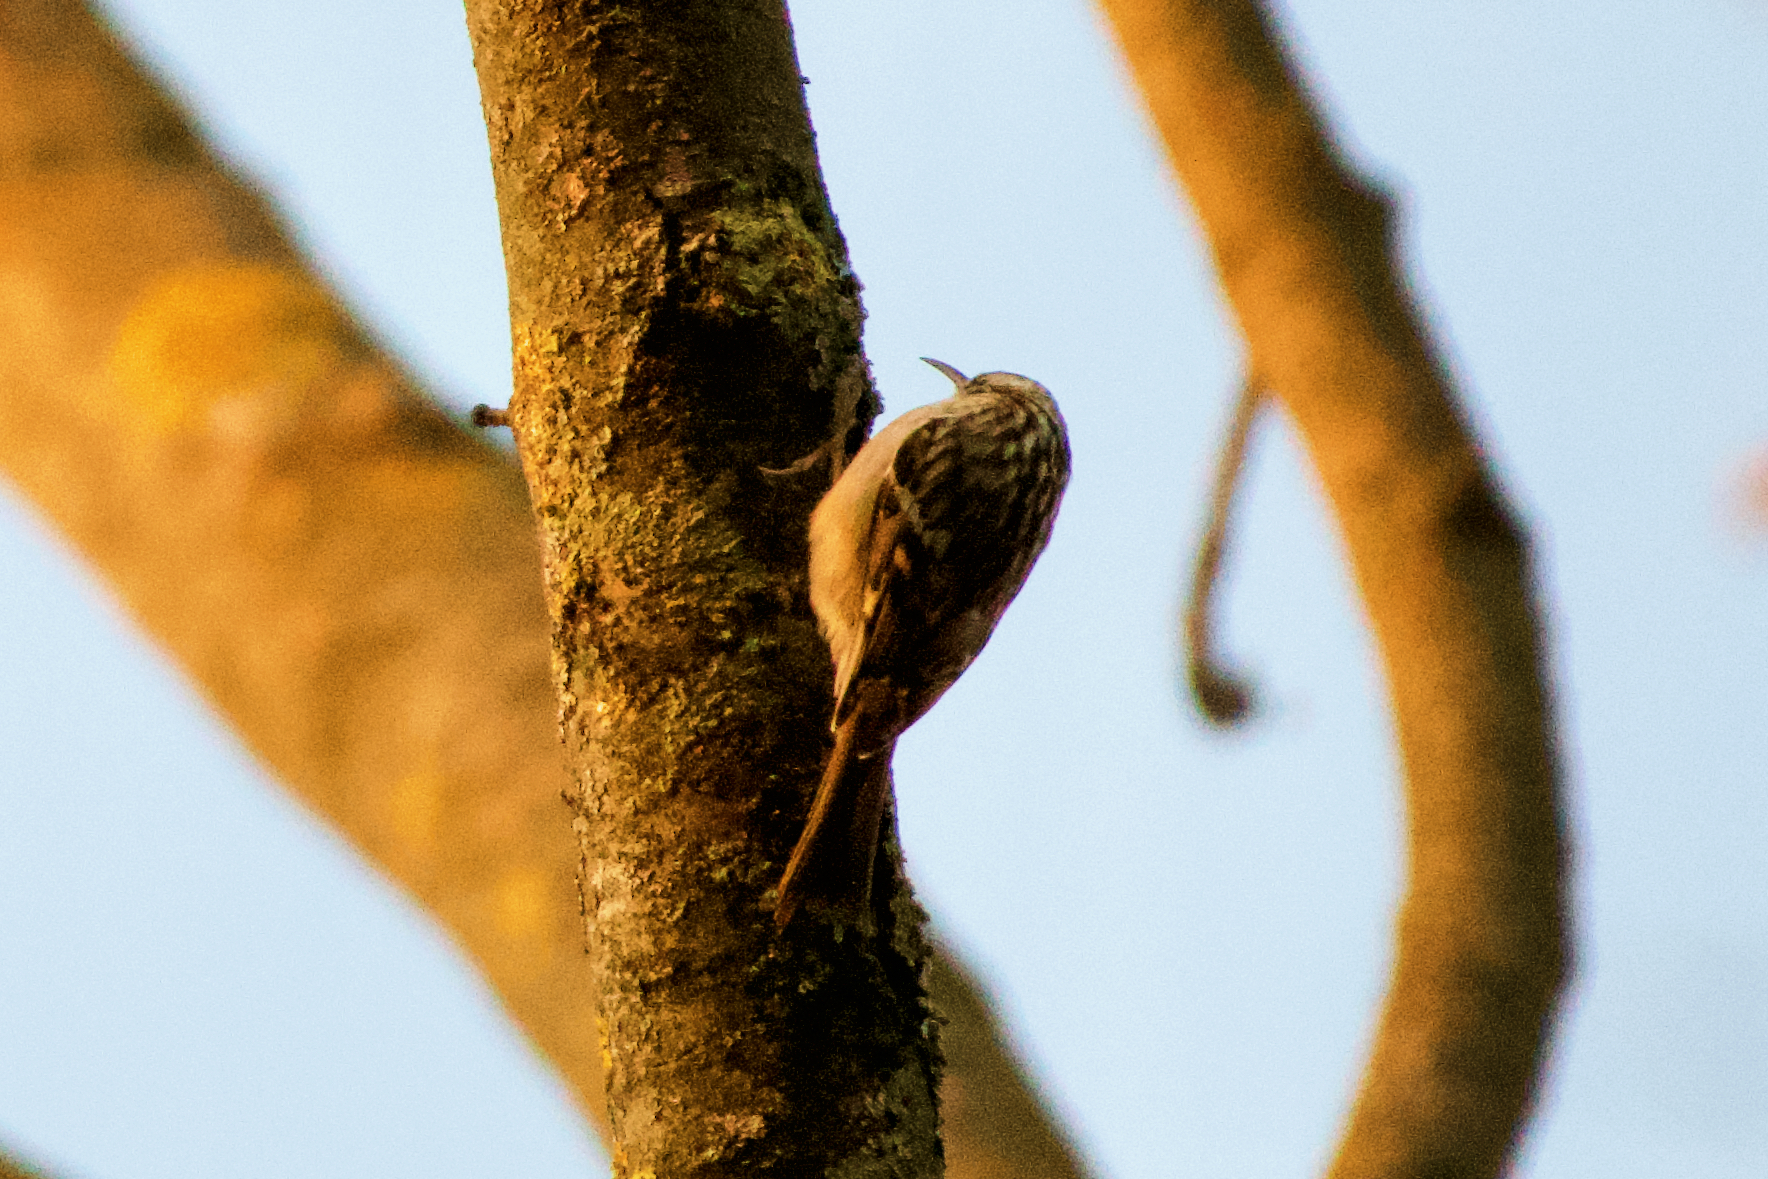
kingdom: Animalia
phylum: Chordata
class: Aves
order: Passeriformes
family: Certhiidae
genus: Certhia
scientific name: Certhia brachydactyla
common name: Short-toed treecreeper
